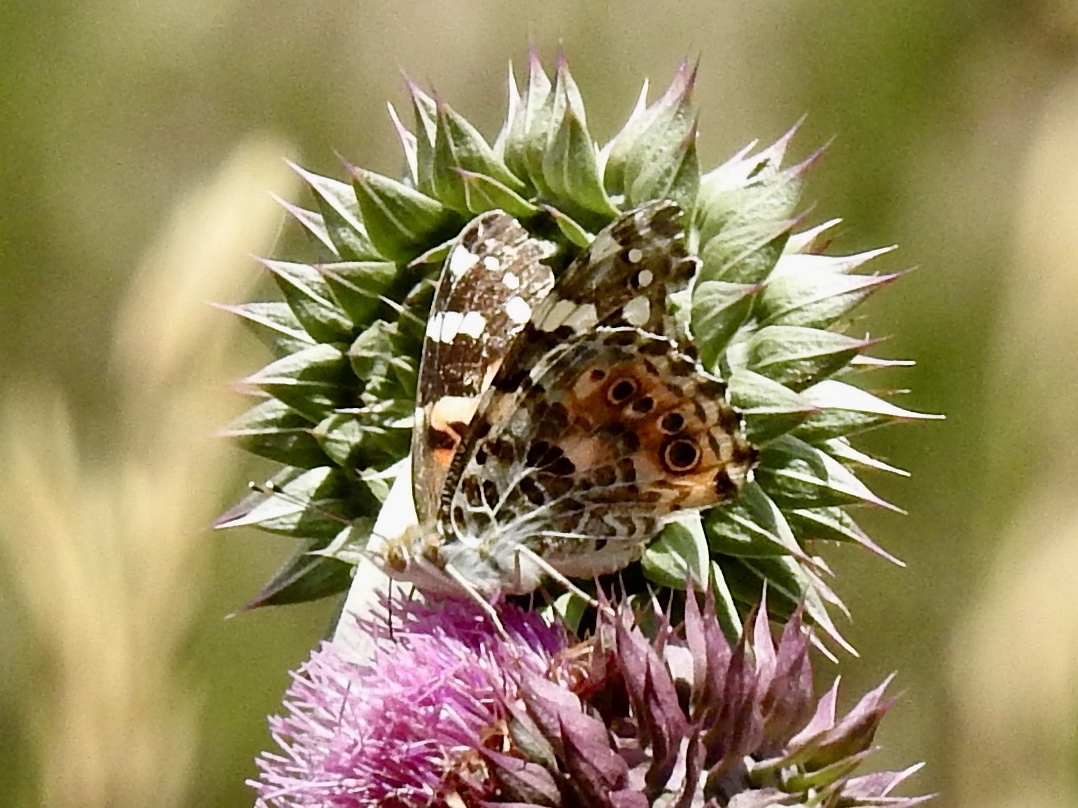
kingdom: Animalia
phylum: Arthropoda
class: Insecta
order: Lepidoptera
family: Nymphalidae
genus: Vanessa
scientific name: Vanessa cardui
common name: Painted lady
